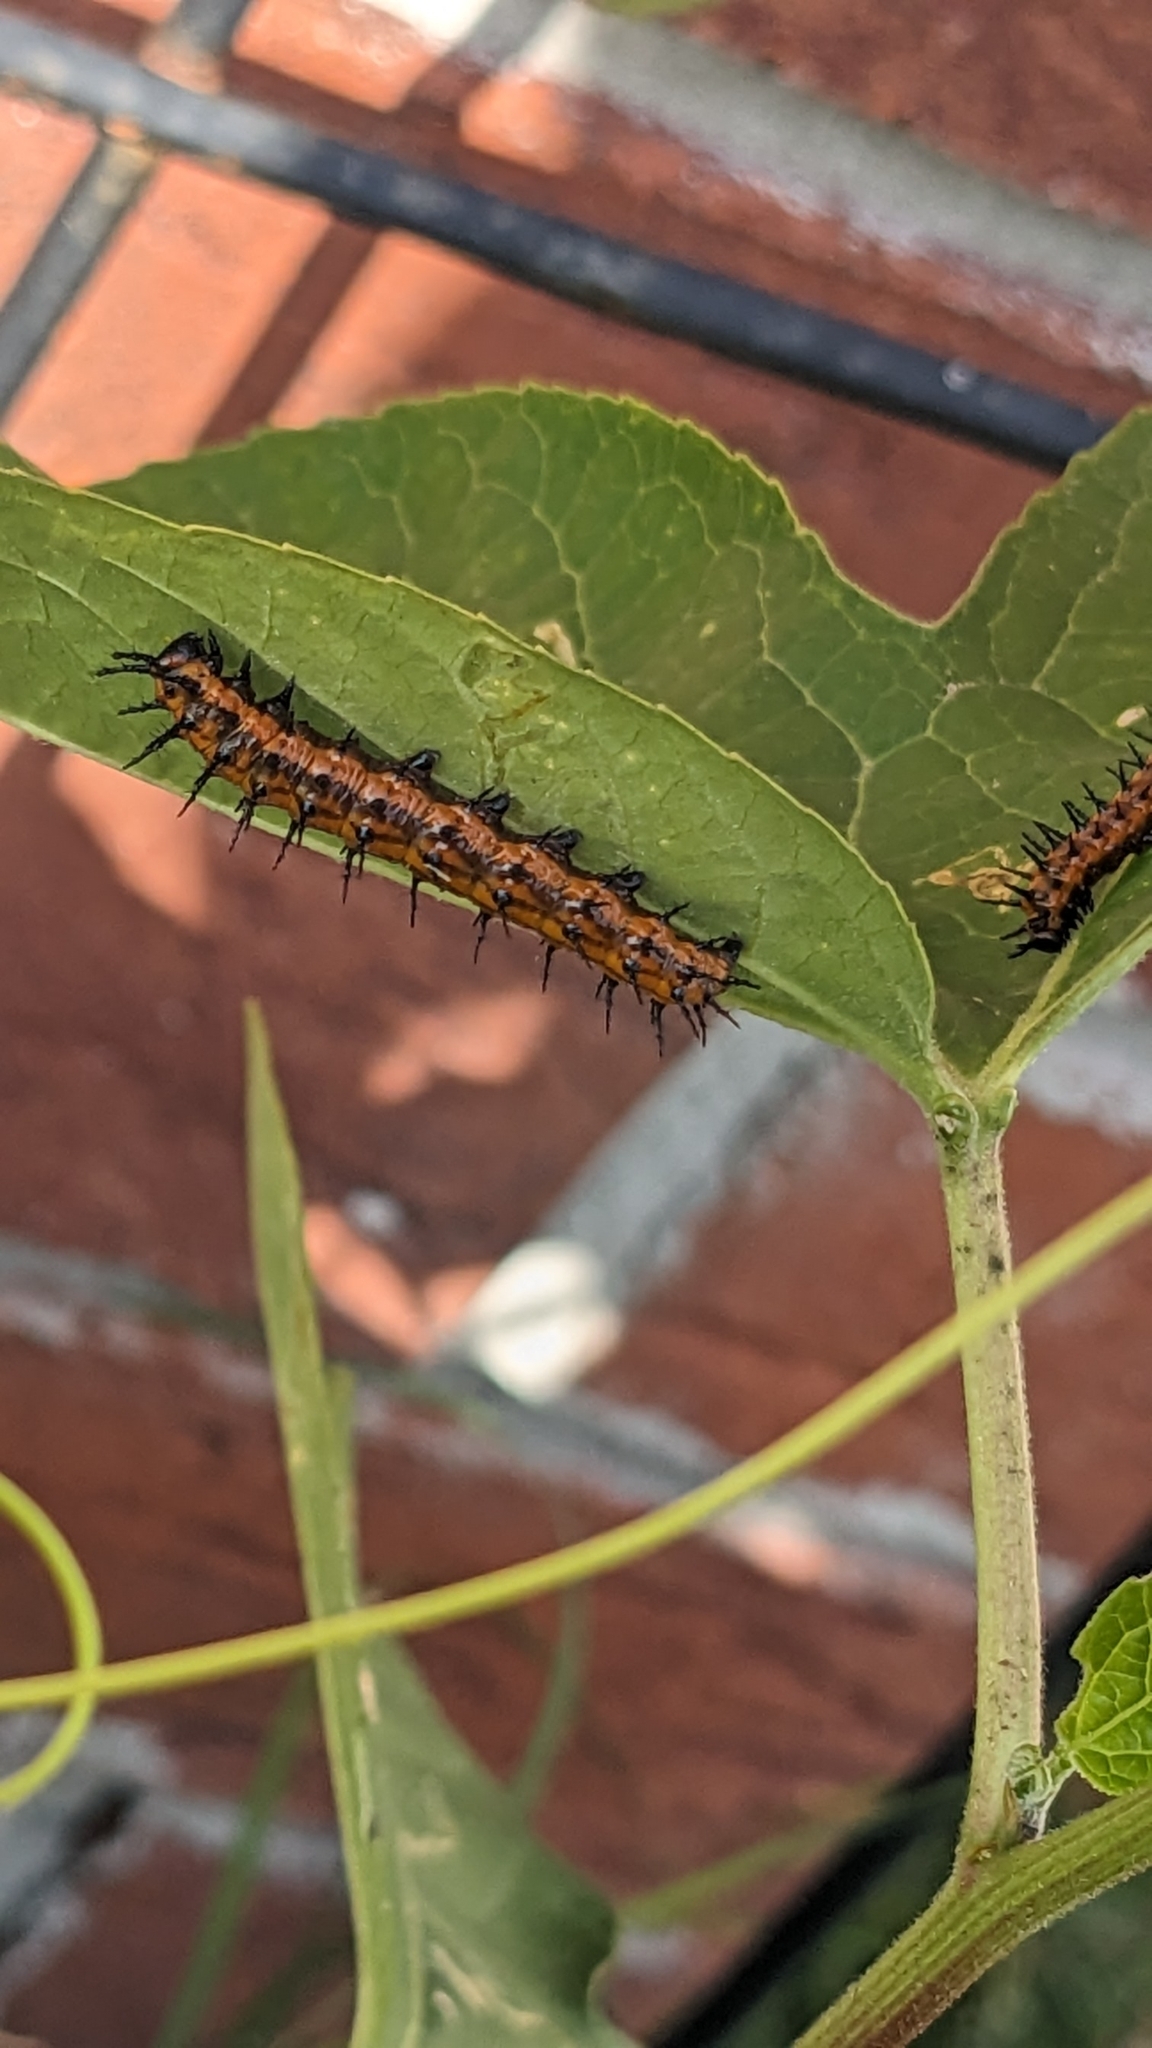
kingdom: Animalia
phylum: Arthropoda
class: Insecta
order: Lepidoptera
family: Nymphalidae
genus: Dione
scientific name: Dione vanillae
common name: Gulf fritillary
